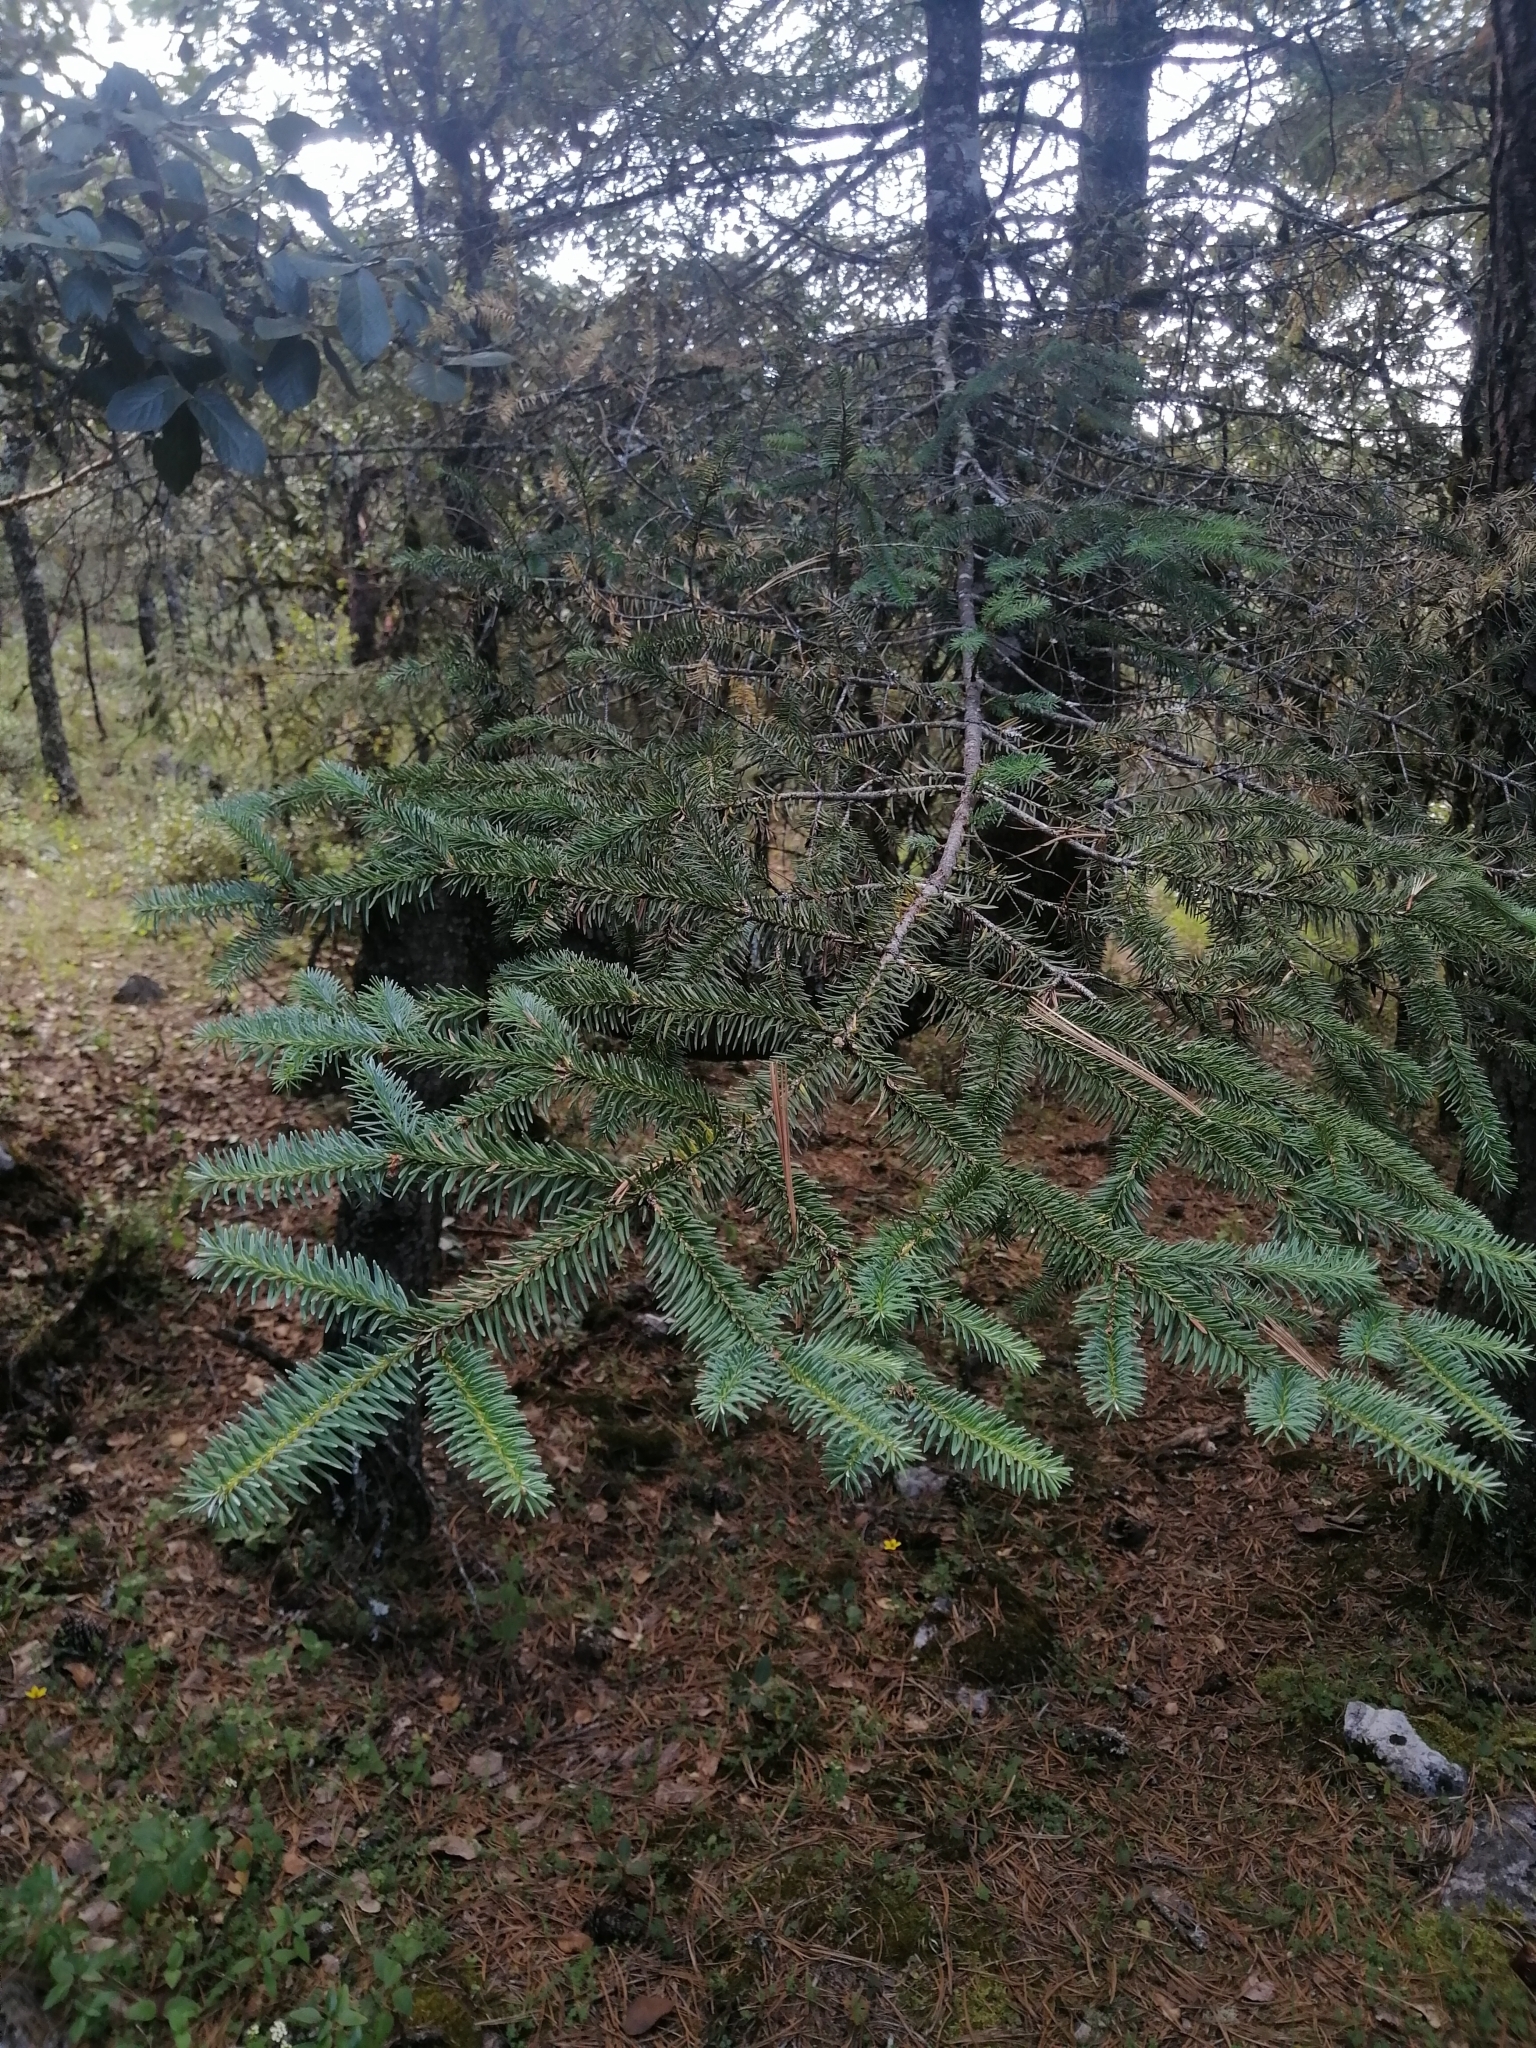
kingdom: Plantae
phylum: Tracheophyta
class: Pinopsida
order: Pinales
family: Pinaceae
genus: Abies
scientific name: Abies religiosa
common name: Sacred fir
